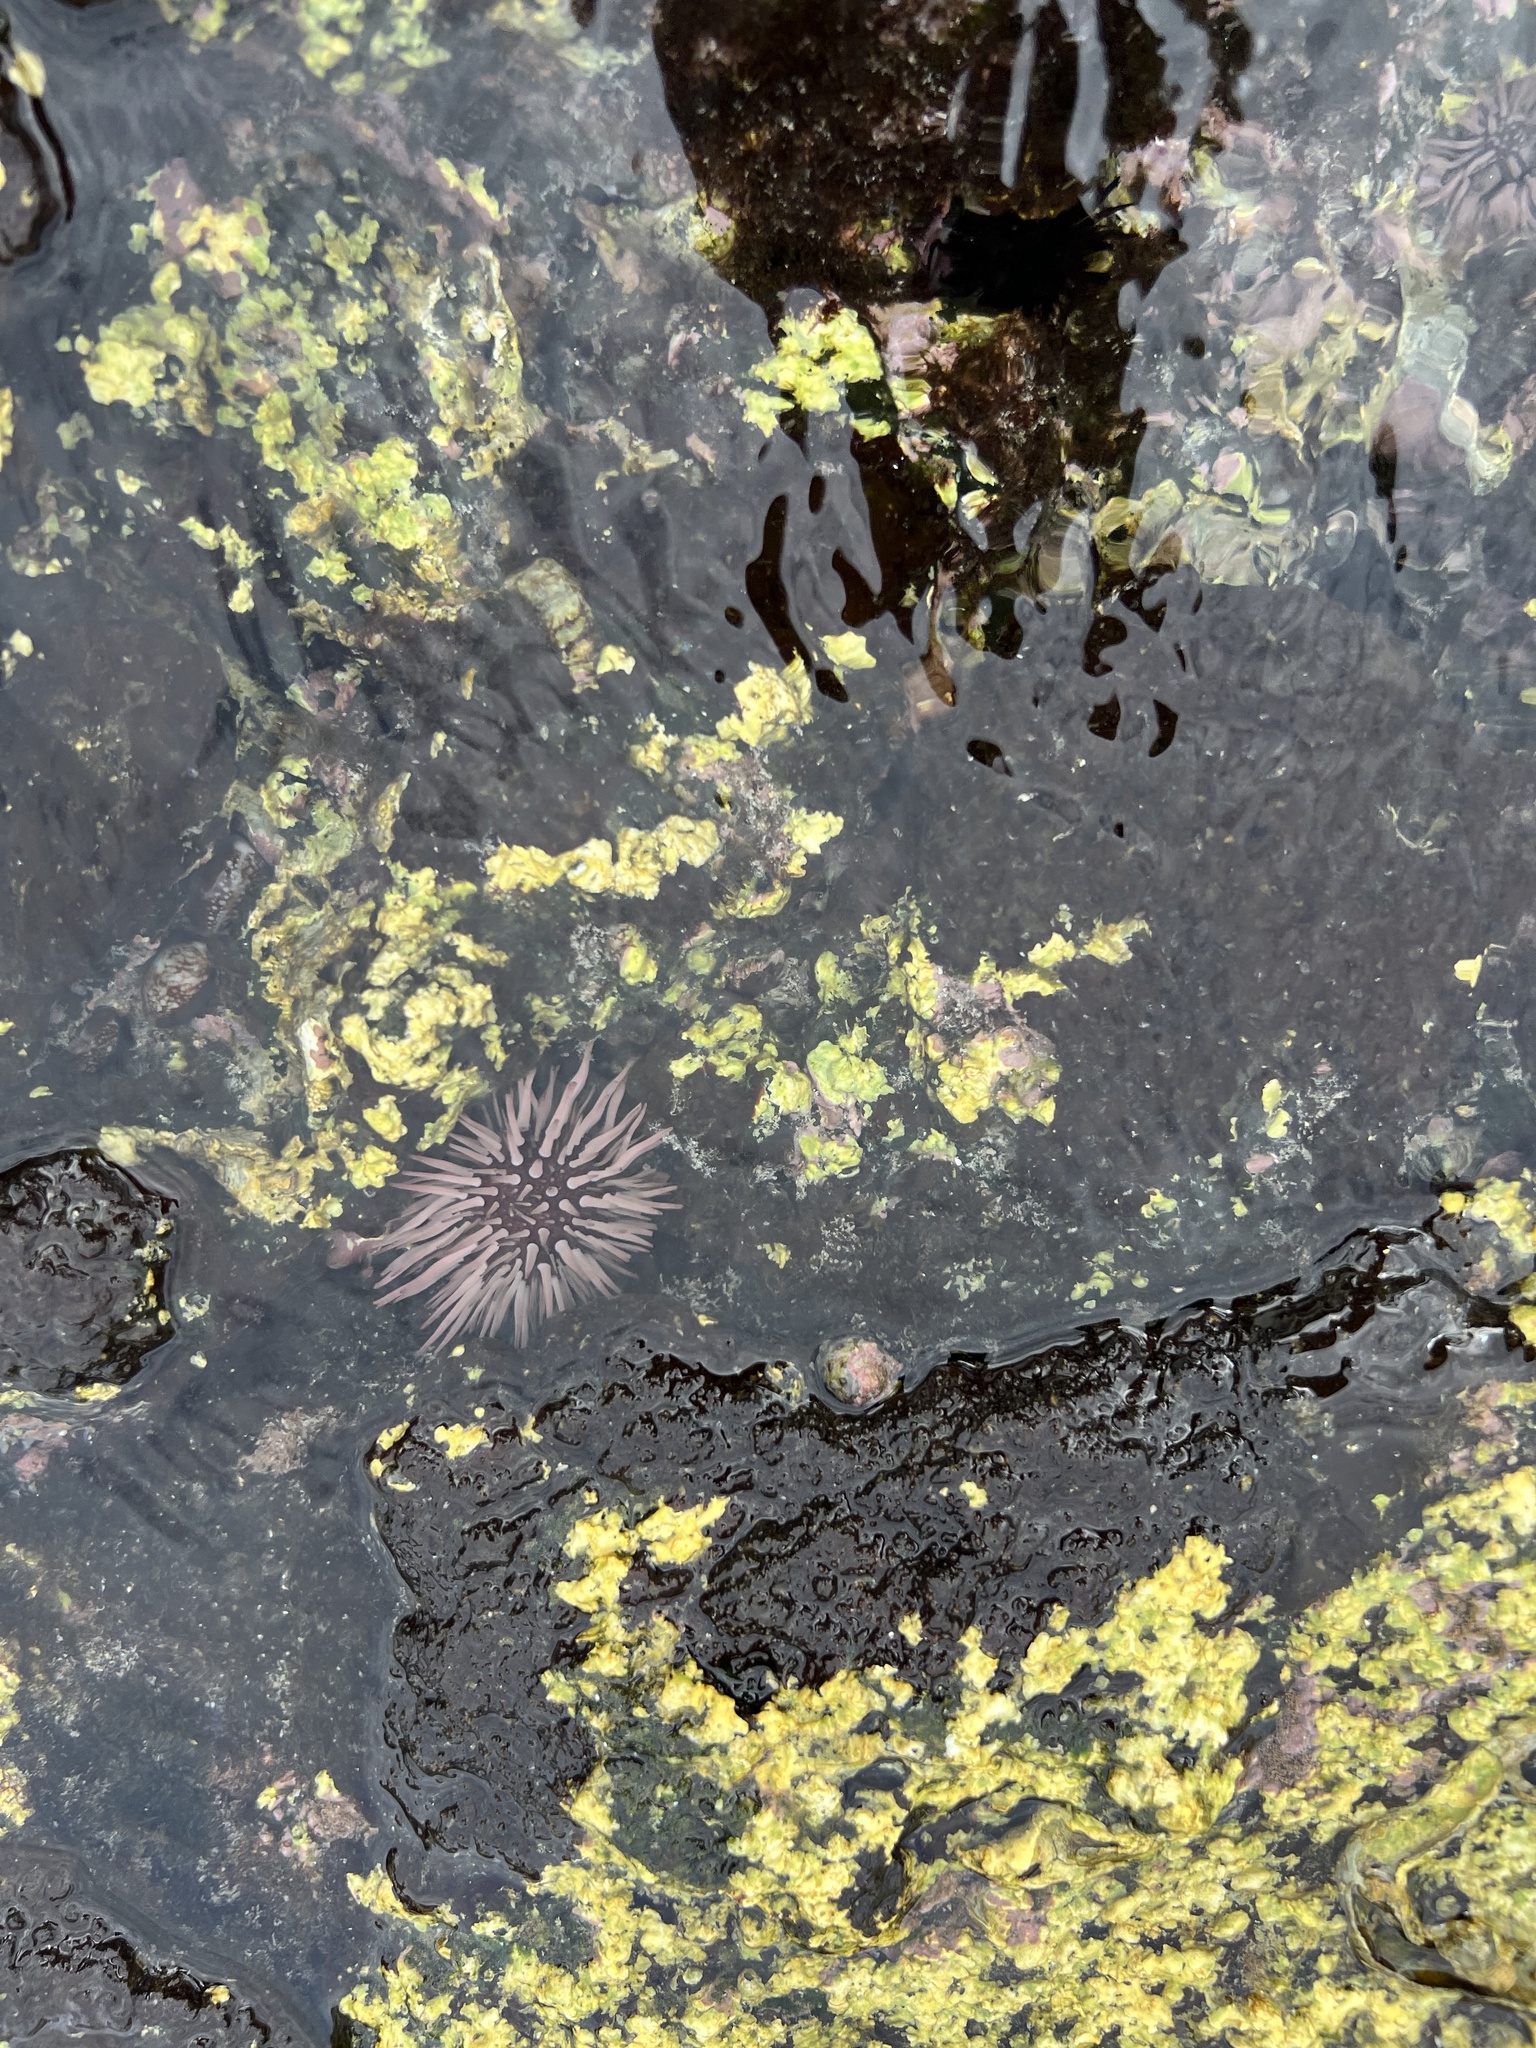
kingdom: Animalia
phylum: Echinodermata
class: Echinoidea
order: Camarodonta
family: Echinometridae
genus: Echinometra
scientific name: Echinometra mathaei
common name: Rock-boring urchin
